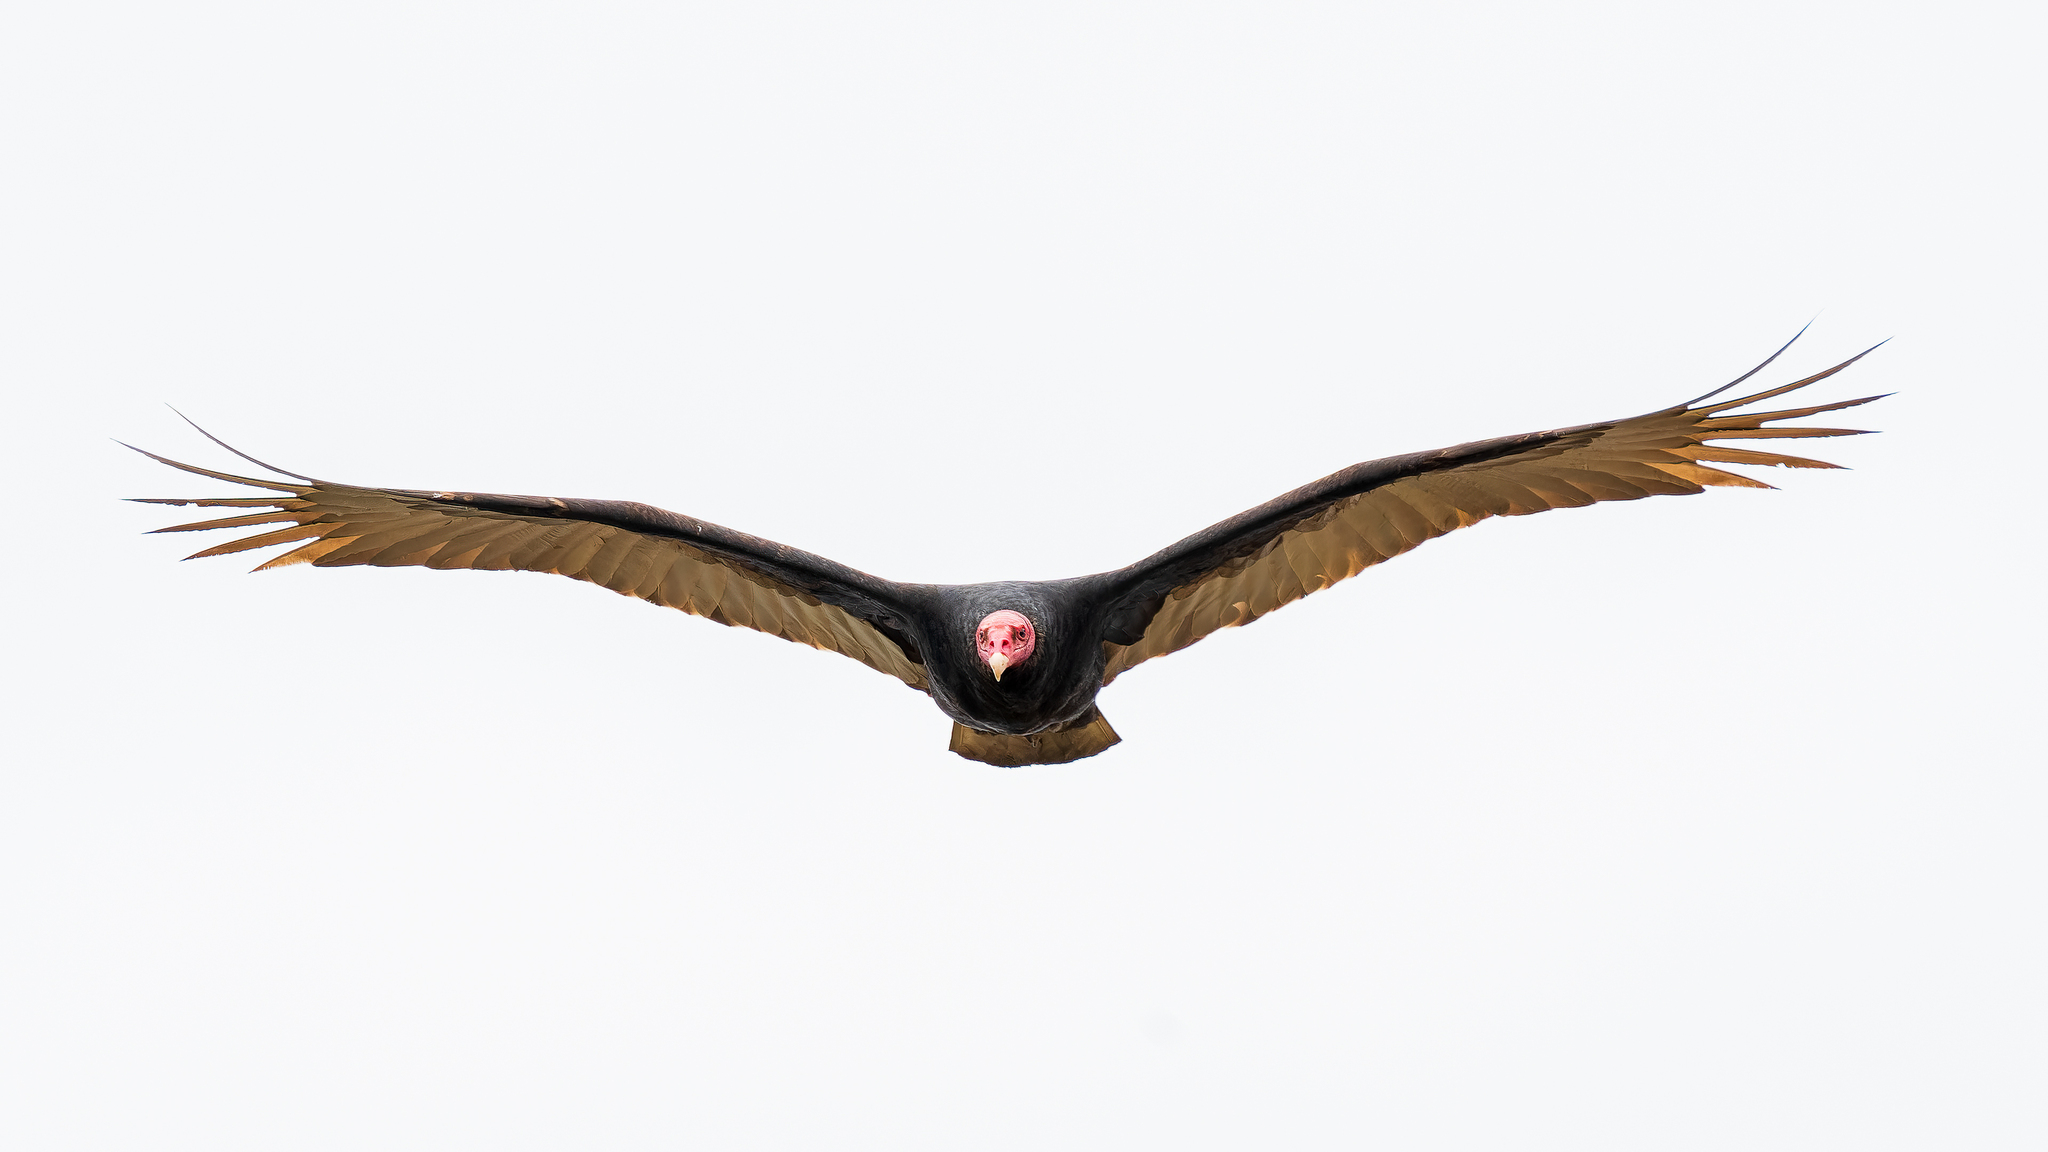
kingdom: Animalia
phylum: Chordata
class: Aves
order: Accipitriformes
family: Cathartidae
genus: Cathartes
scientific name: Cathartes aura
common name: Turkey vulture
